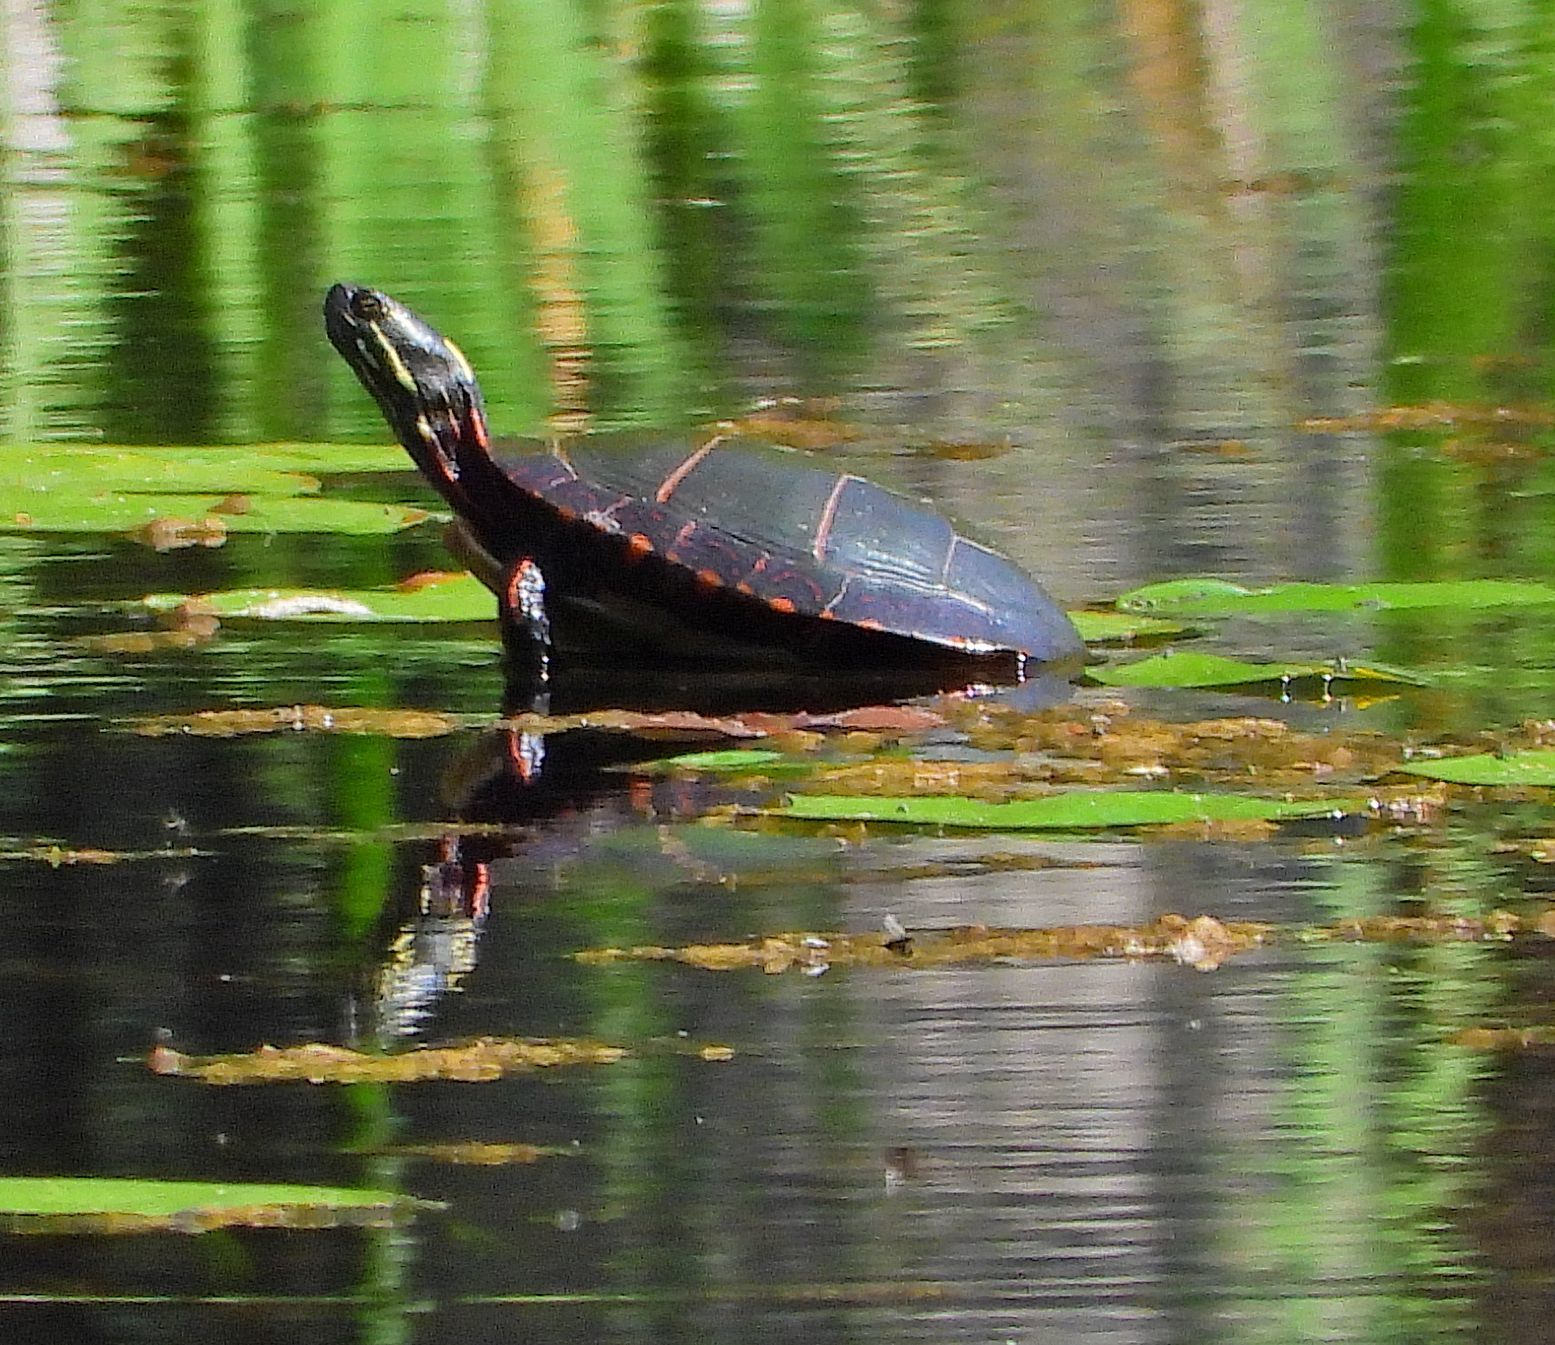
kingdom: Animalia
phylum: Chordata
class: Testudines
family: Emydidae
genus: Chrysemys
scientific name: Chrysemys picta
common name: Painted turtle
